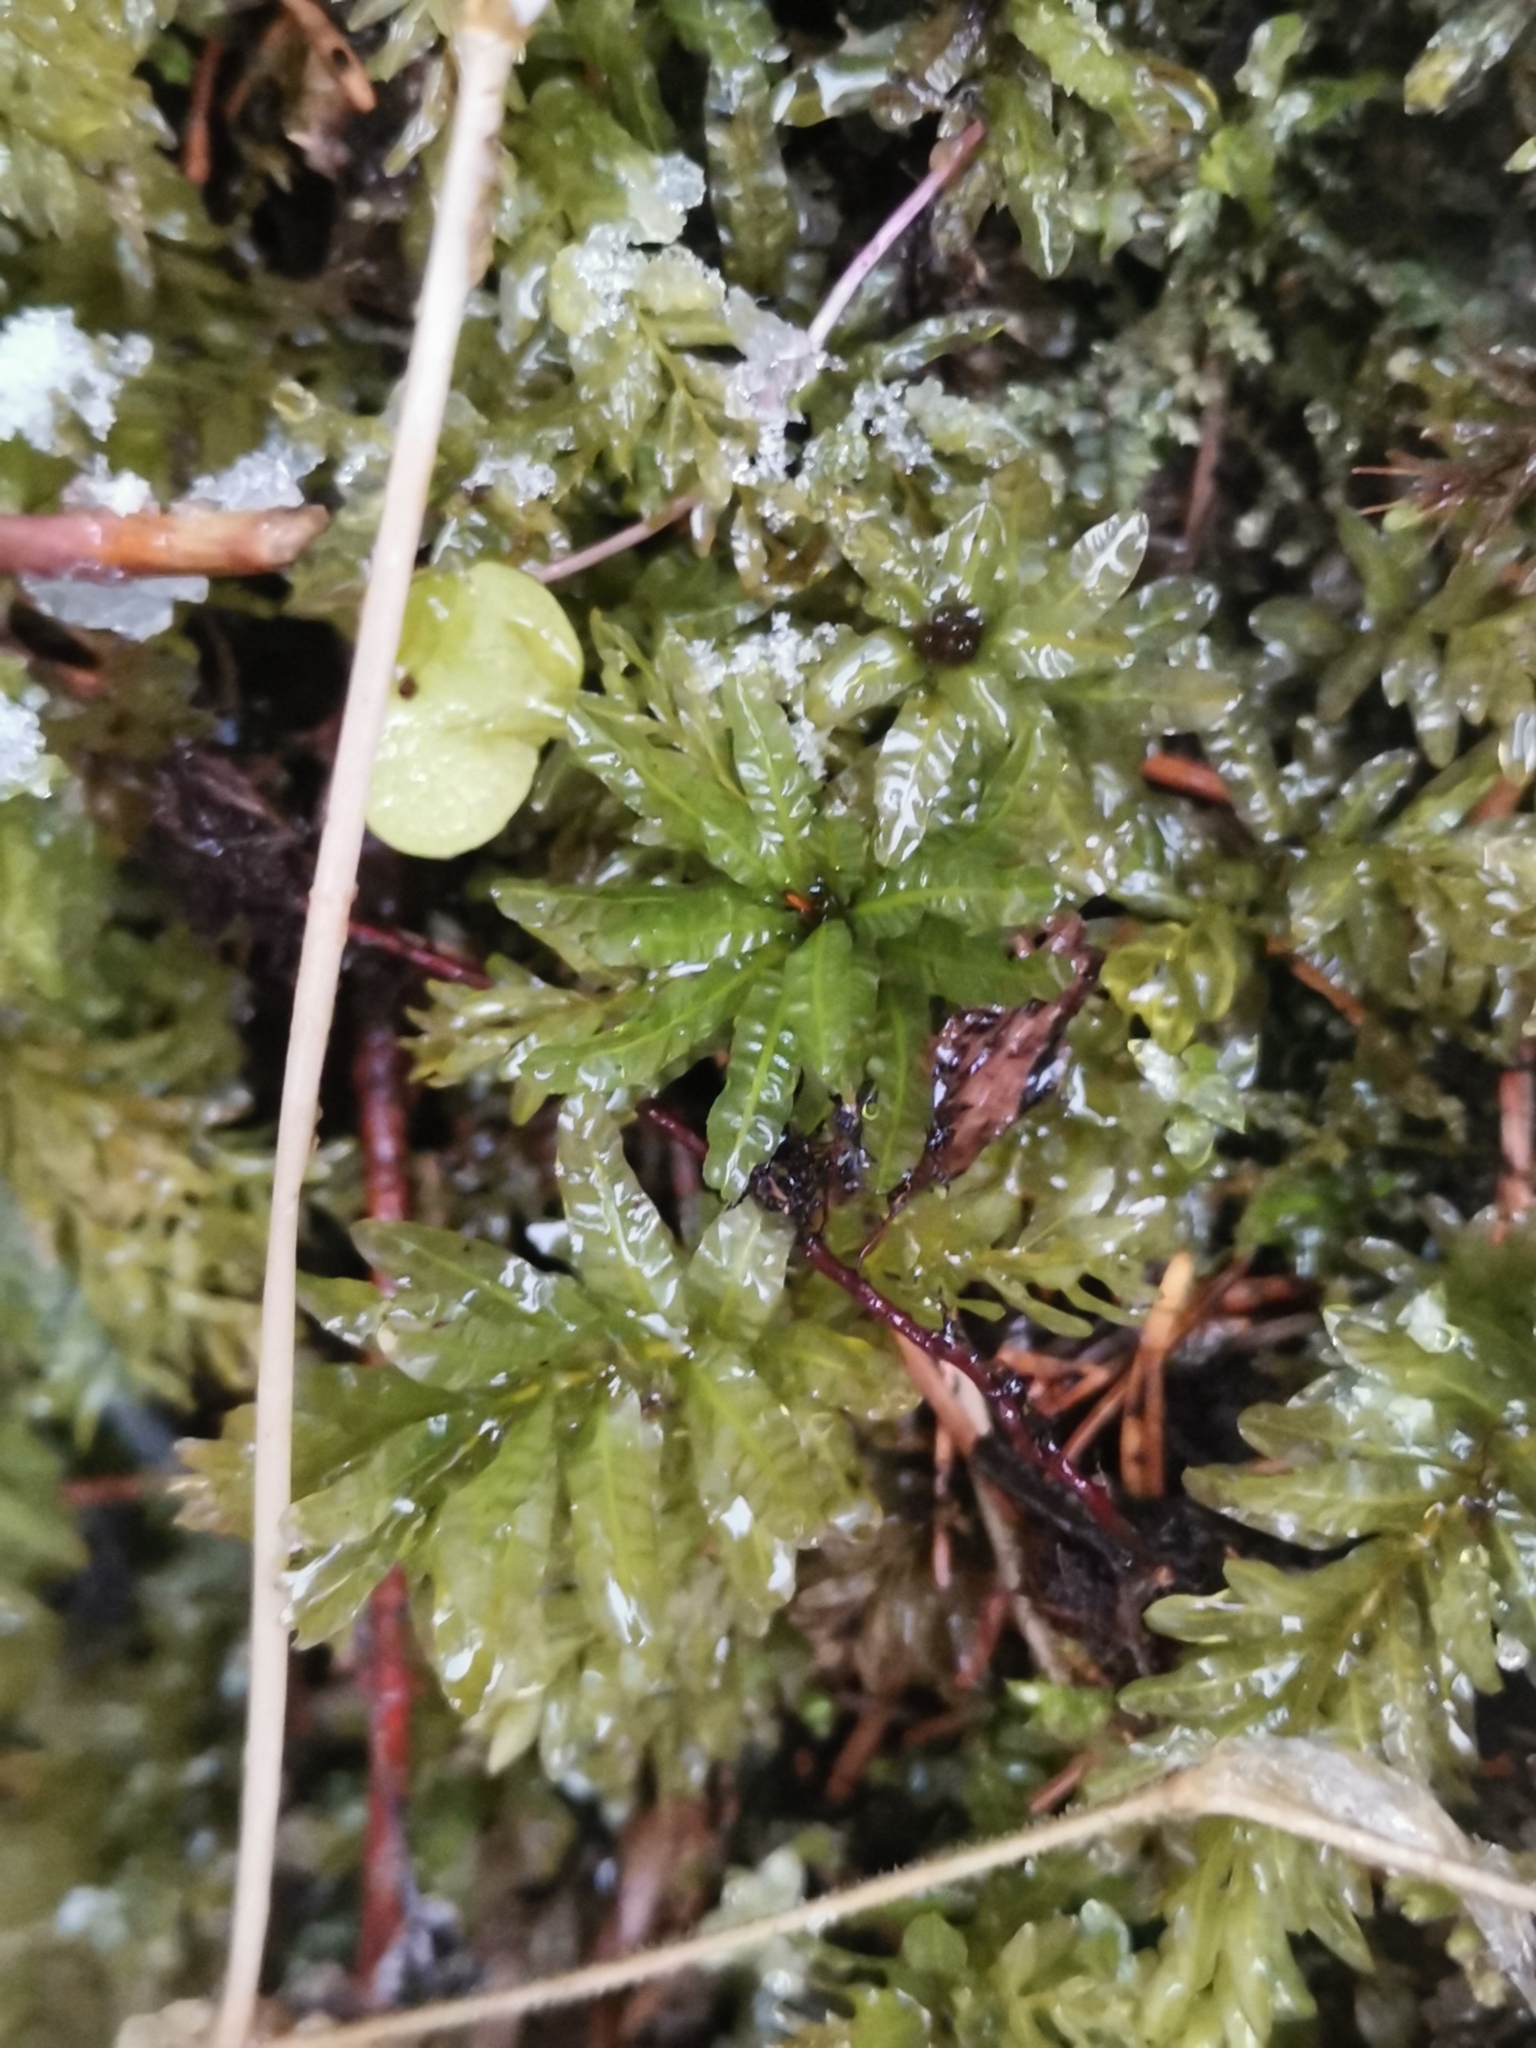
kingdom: Plantae
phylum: Bryophyta
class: Bryopsida
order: Bryales
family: Mniaceae
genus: Plagiomnium
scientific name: Plagiomnium undulatum
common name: Hart's-tongue thyme-moss
